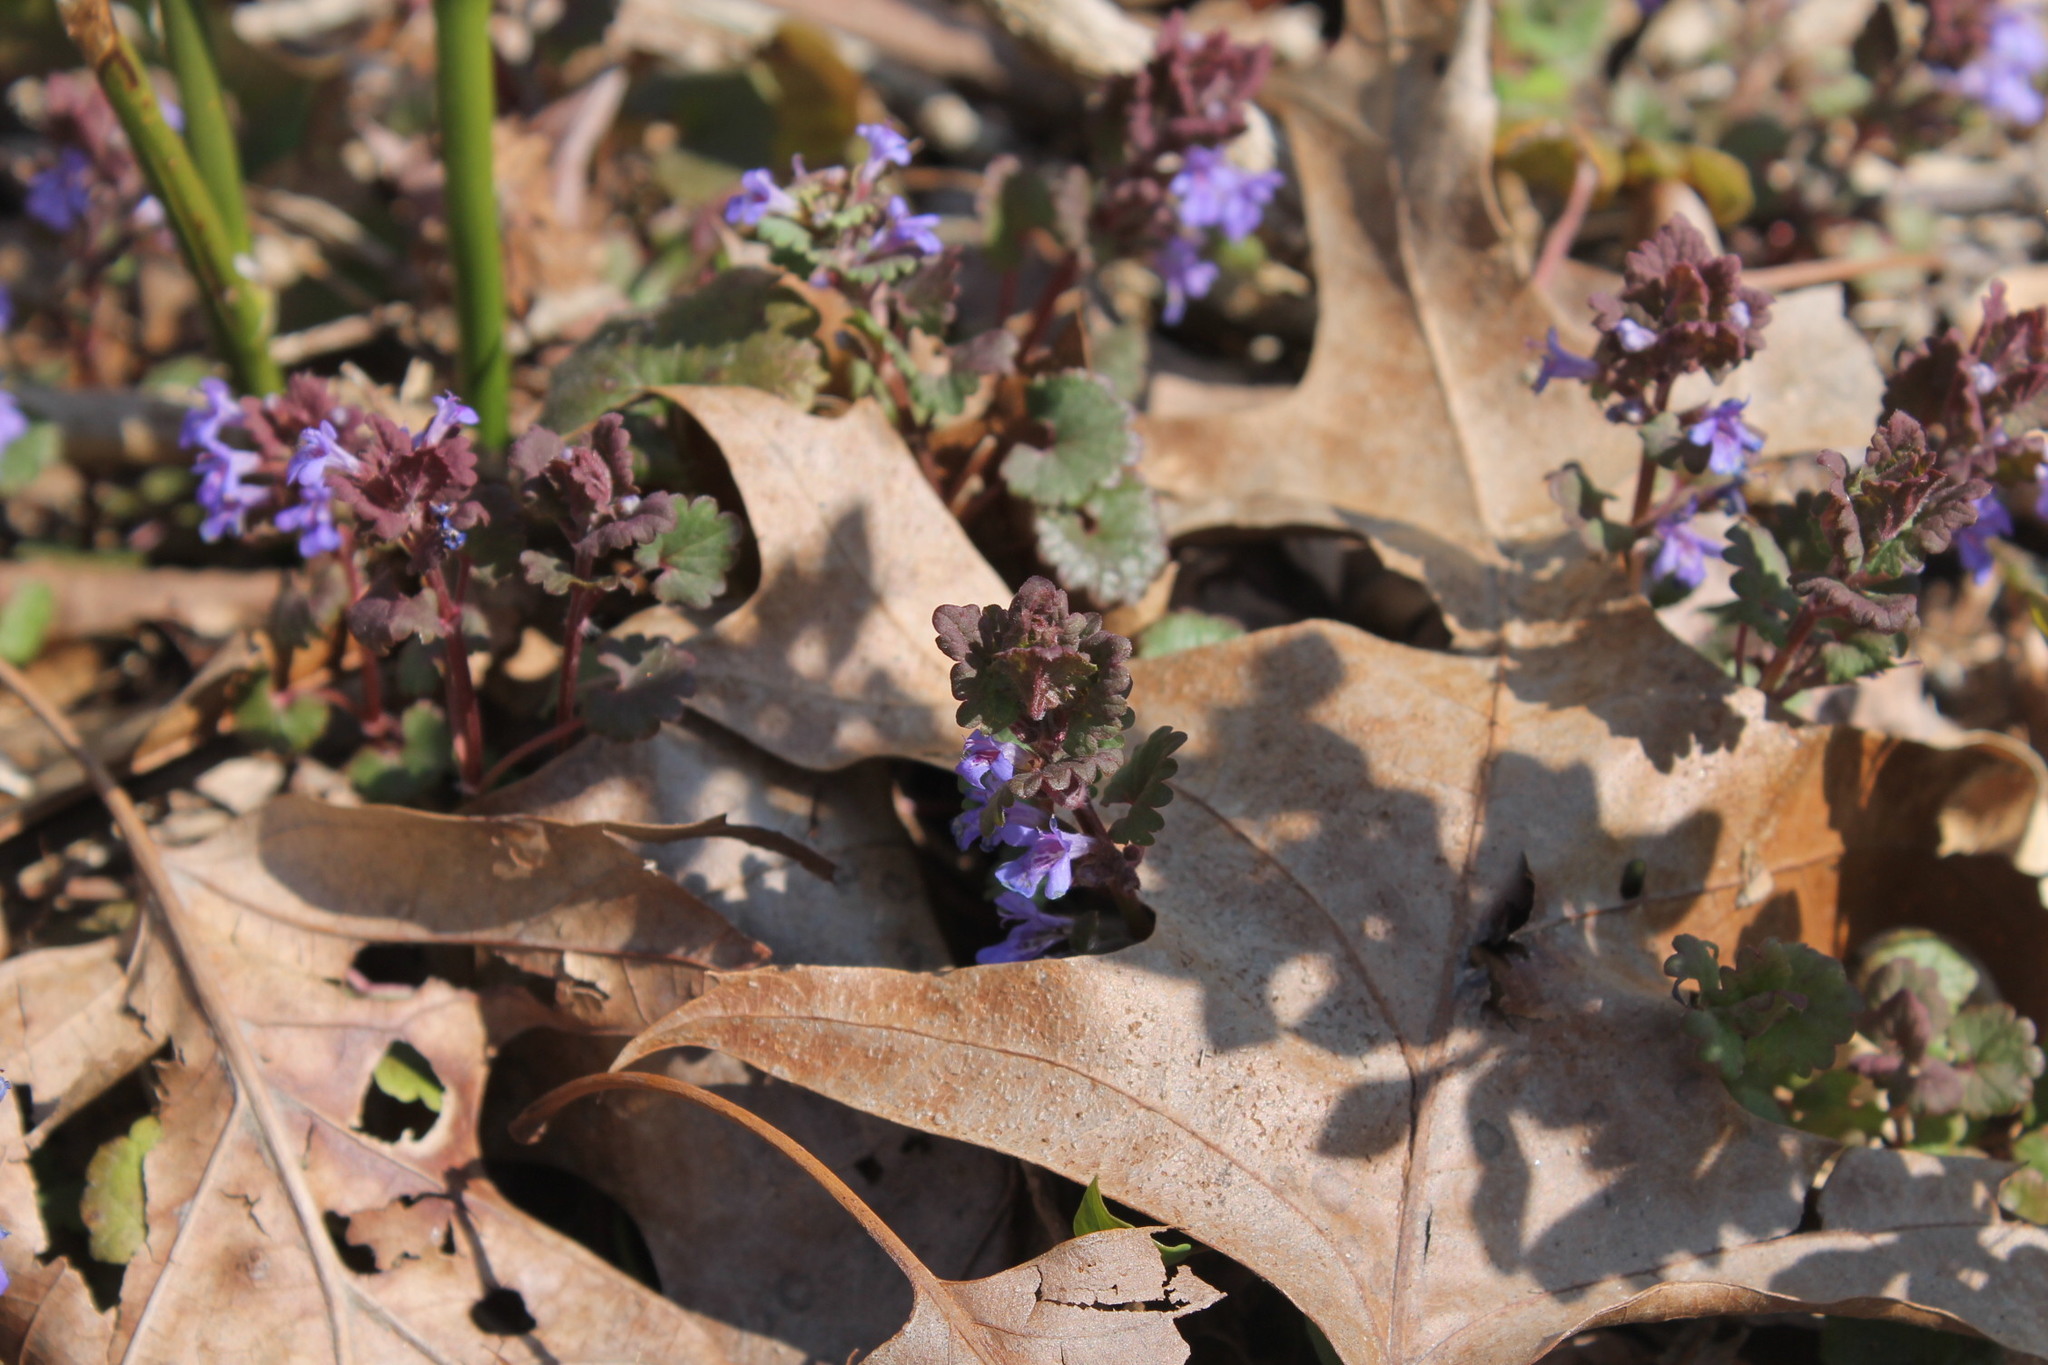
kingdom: Plantae
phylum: Tracheophyta
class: Magnoliopsida
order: Lamiales
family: Lamiaceae
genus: Glechoma
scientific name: Glechoma hederacea
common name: Ground ivy
